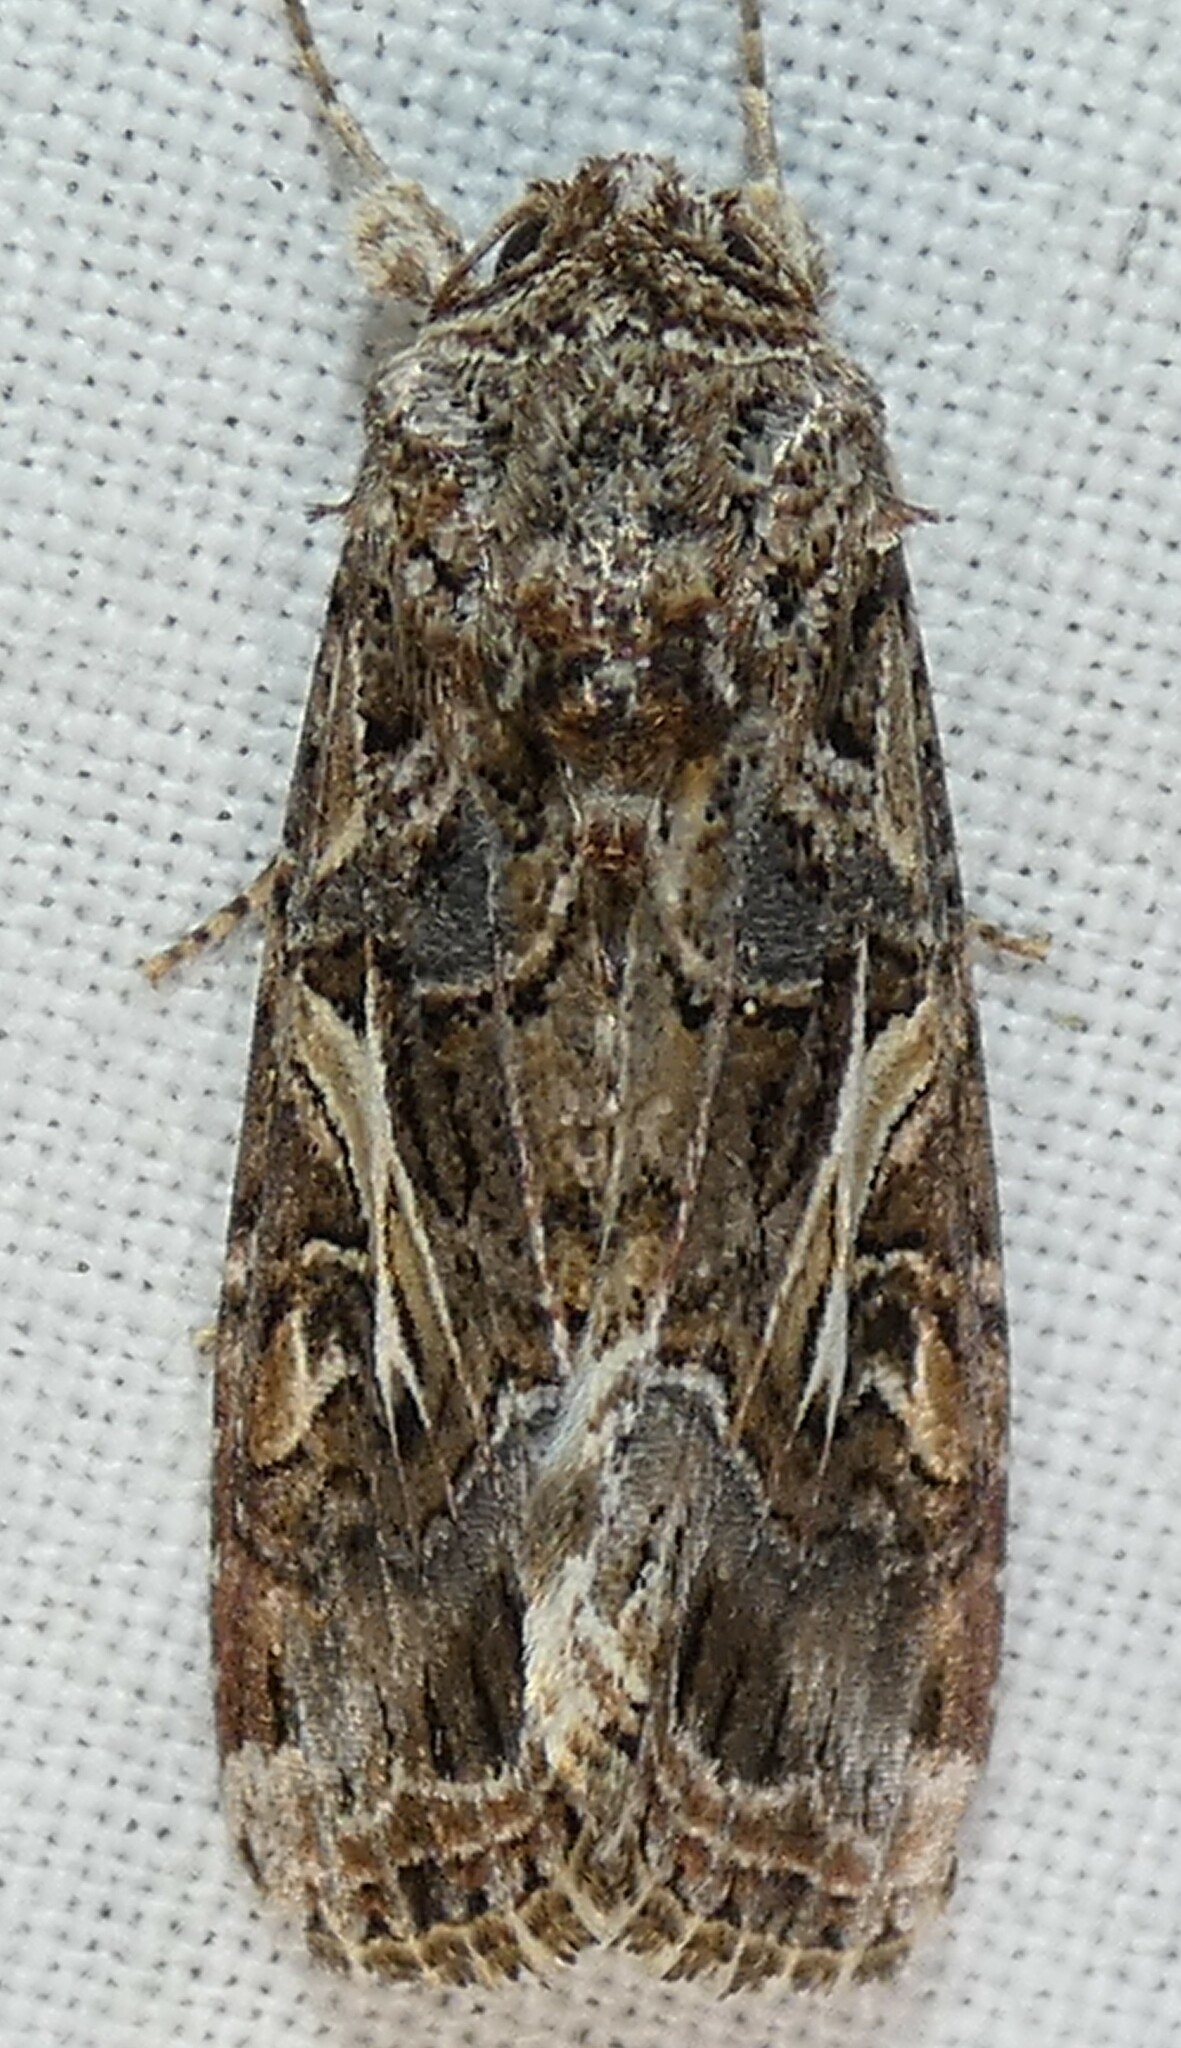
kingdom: Animalia
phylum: Arthropoda
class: Insecta
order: Lepidoptera
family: Noctuidae
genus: Spodoptera
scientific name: Spodoptera ornithogalli
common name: Yellow-striped armyworm
